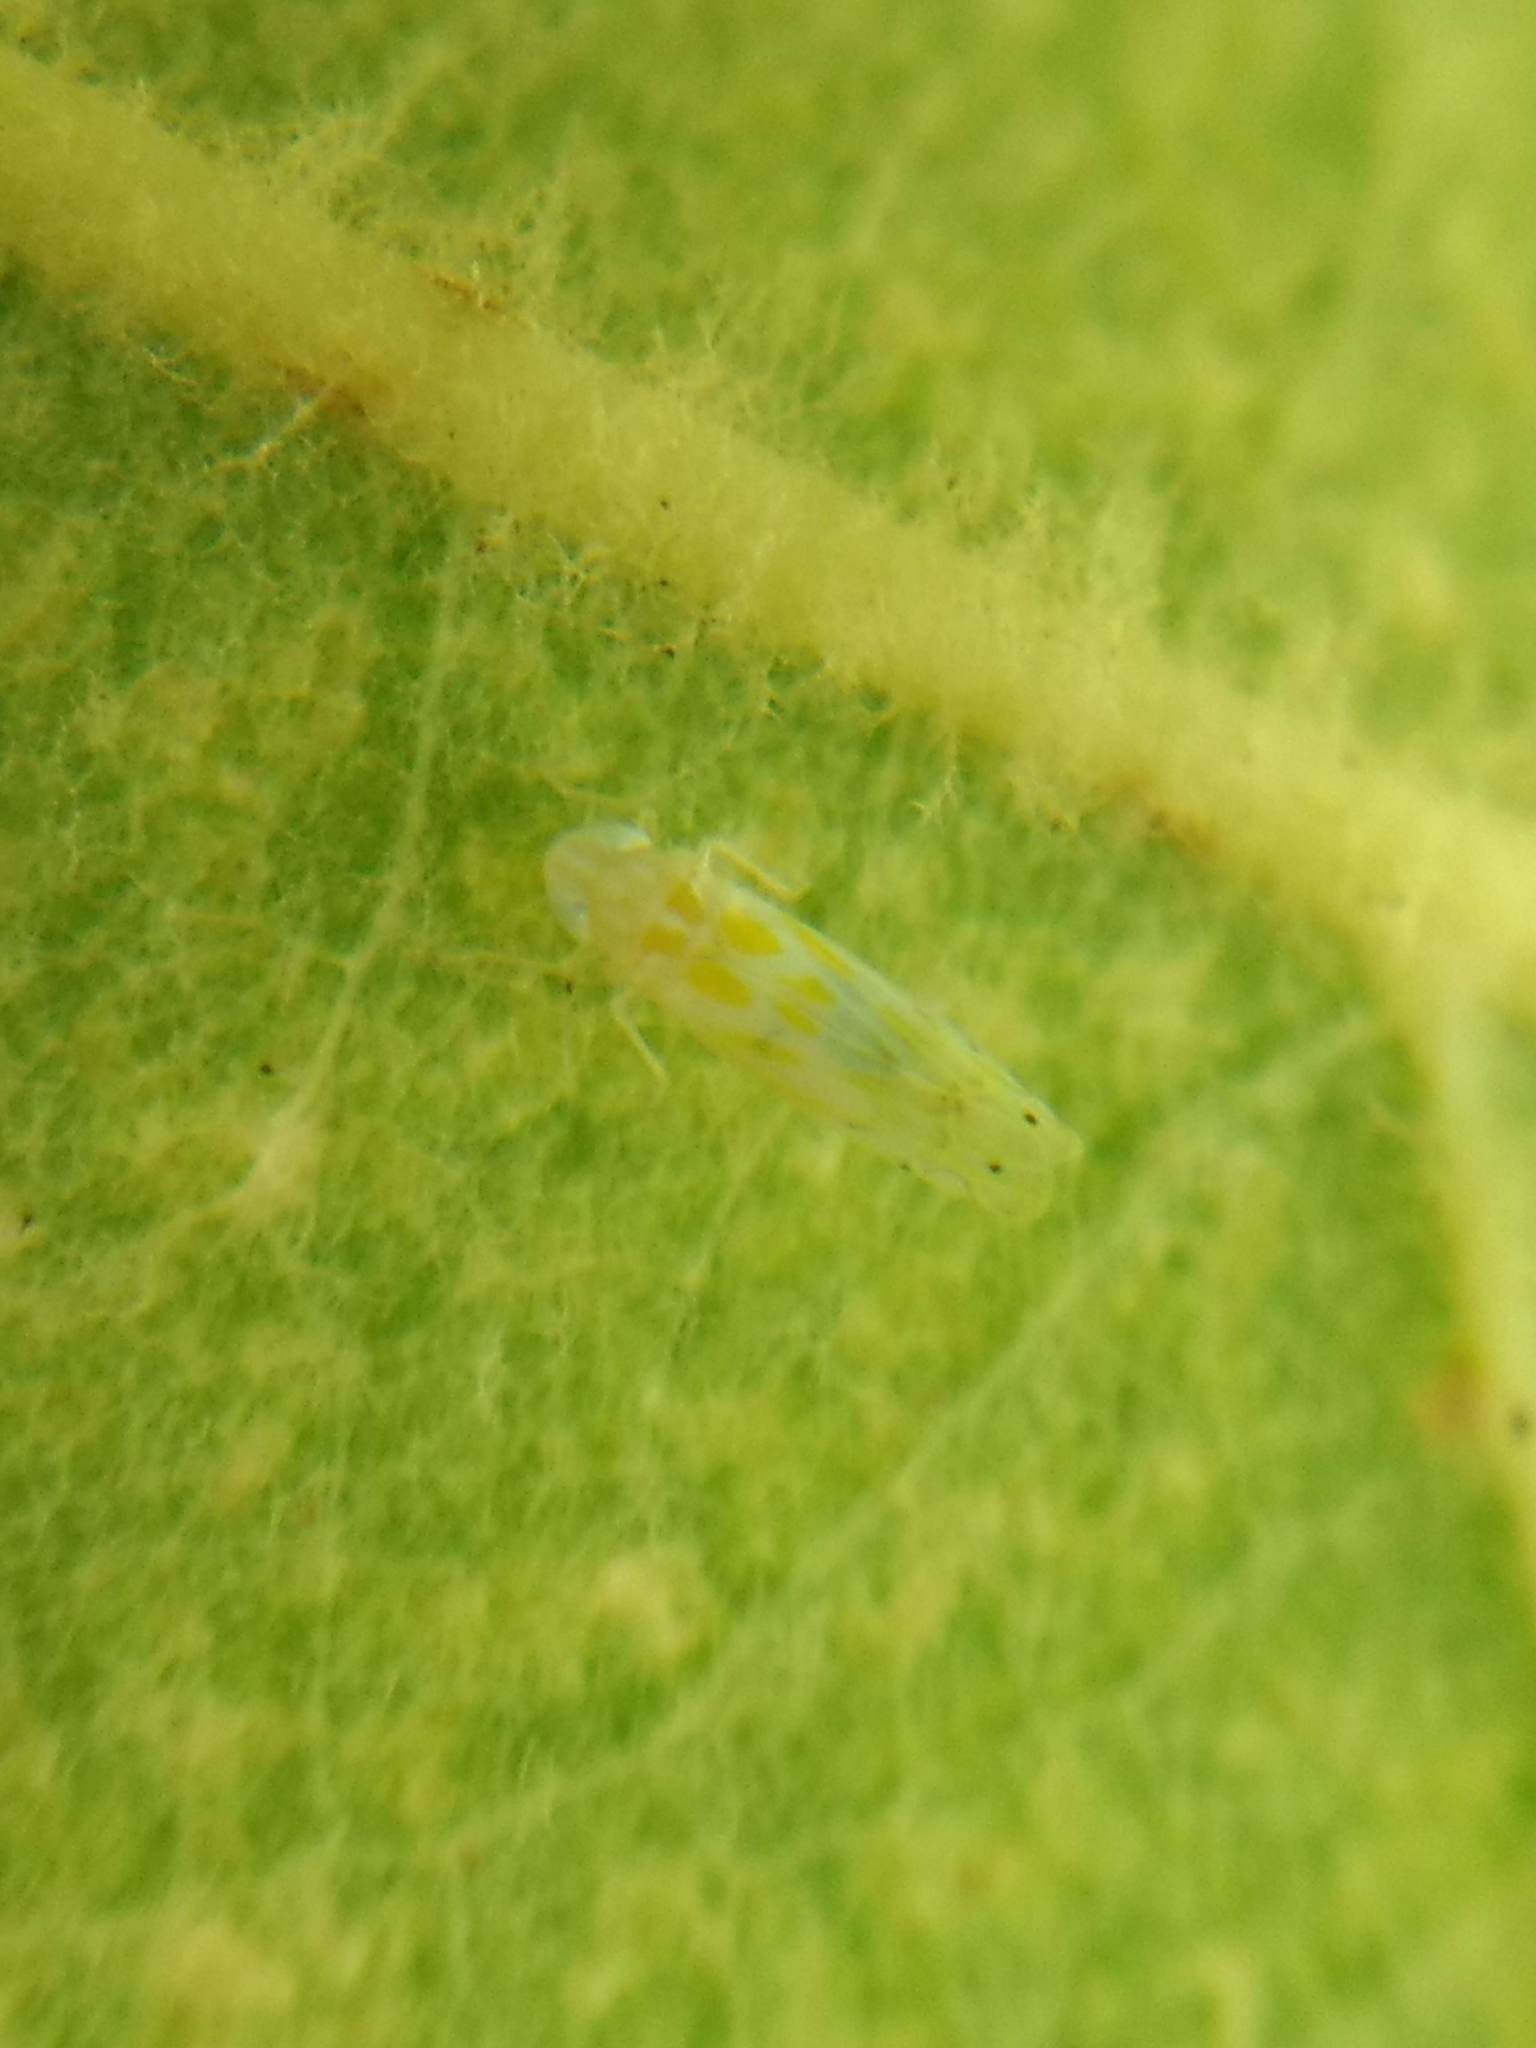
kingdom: Animalia
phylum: Arthropoda
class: Insecta
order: Hemiptera
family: Cicadellidae
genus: Alconeura
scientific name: Alconeura quadrimaculata
